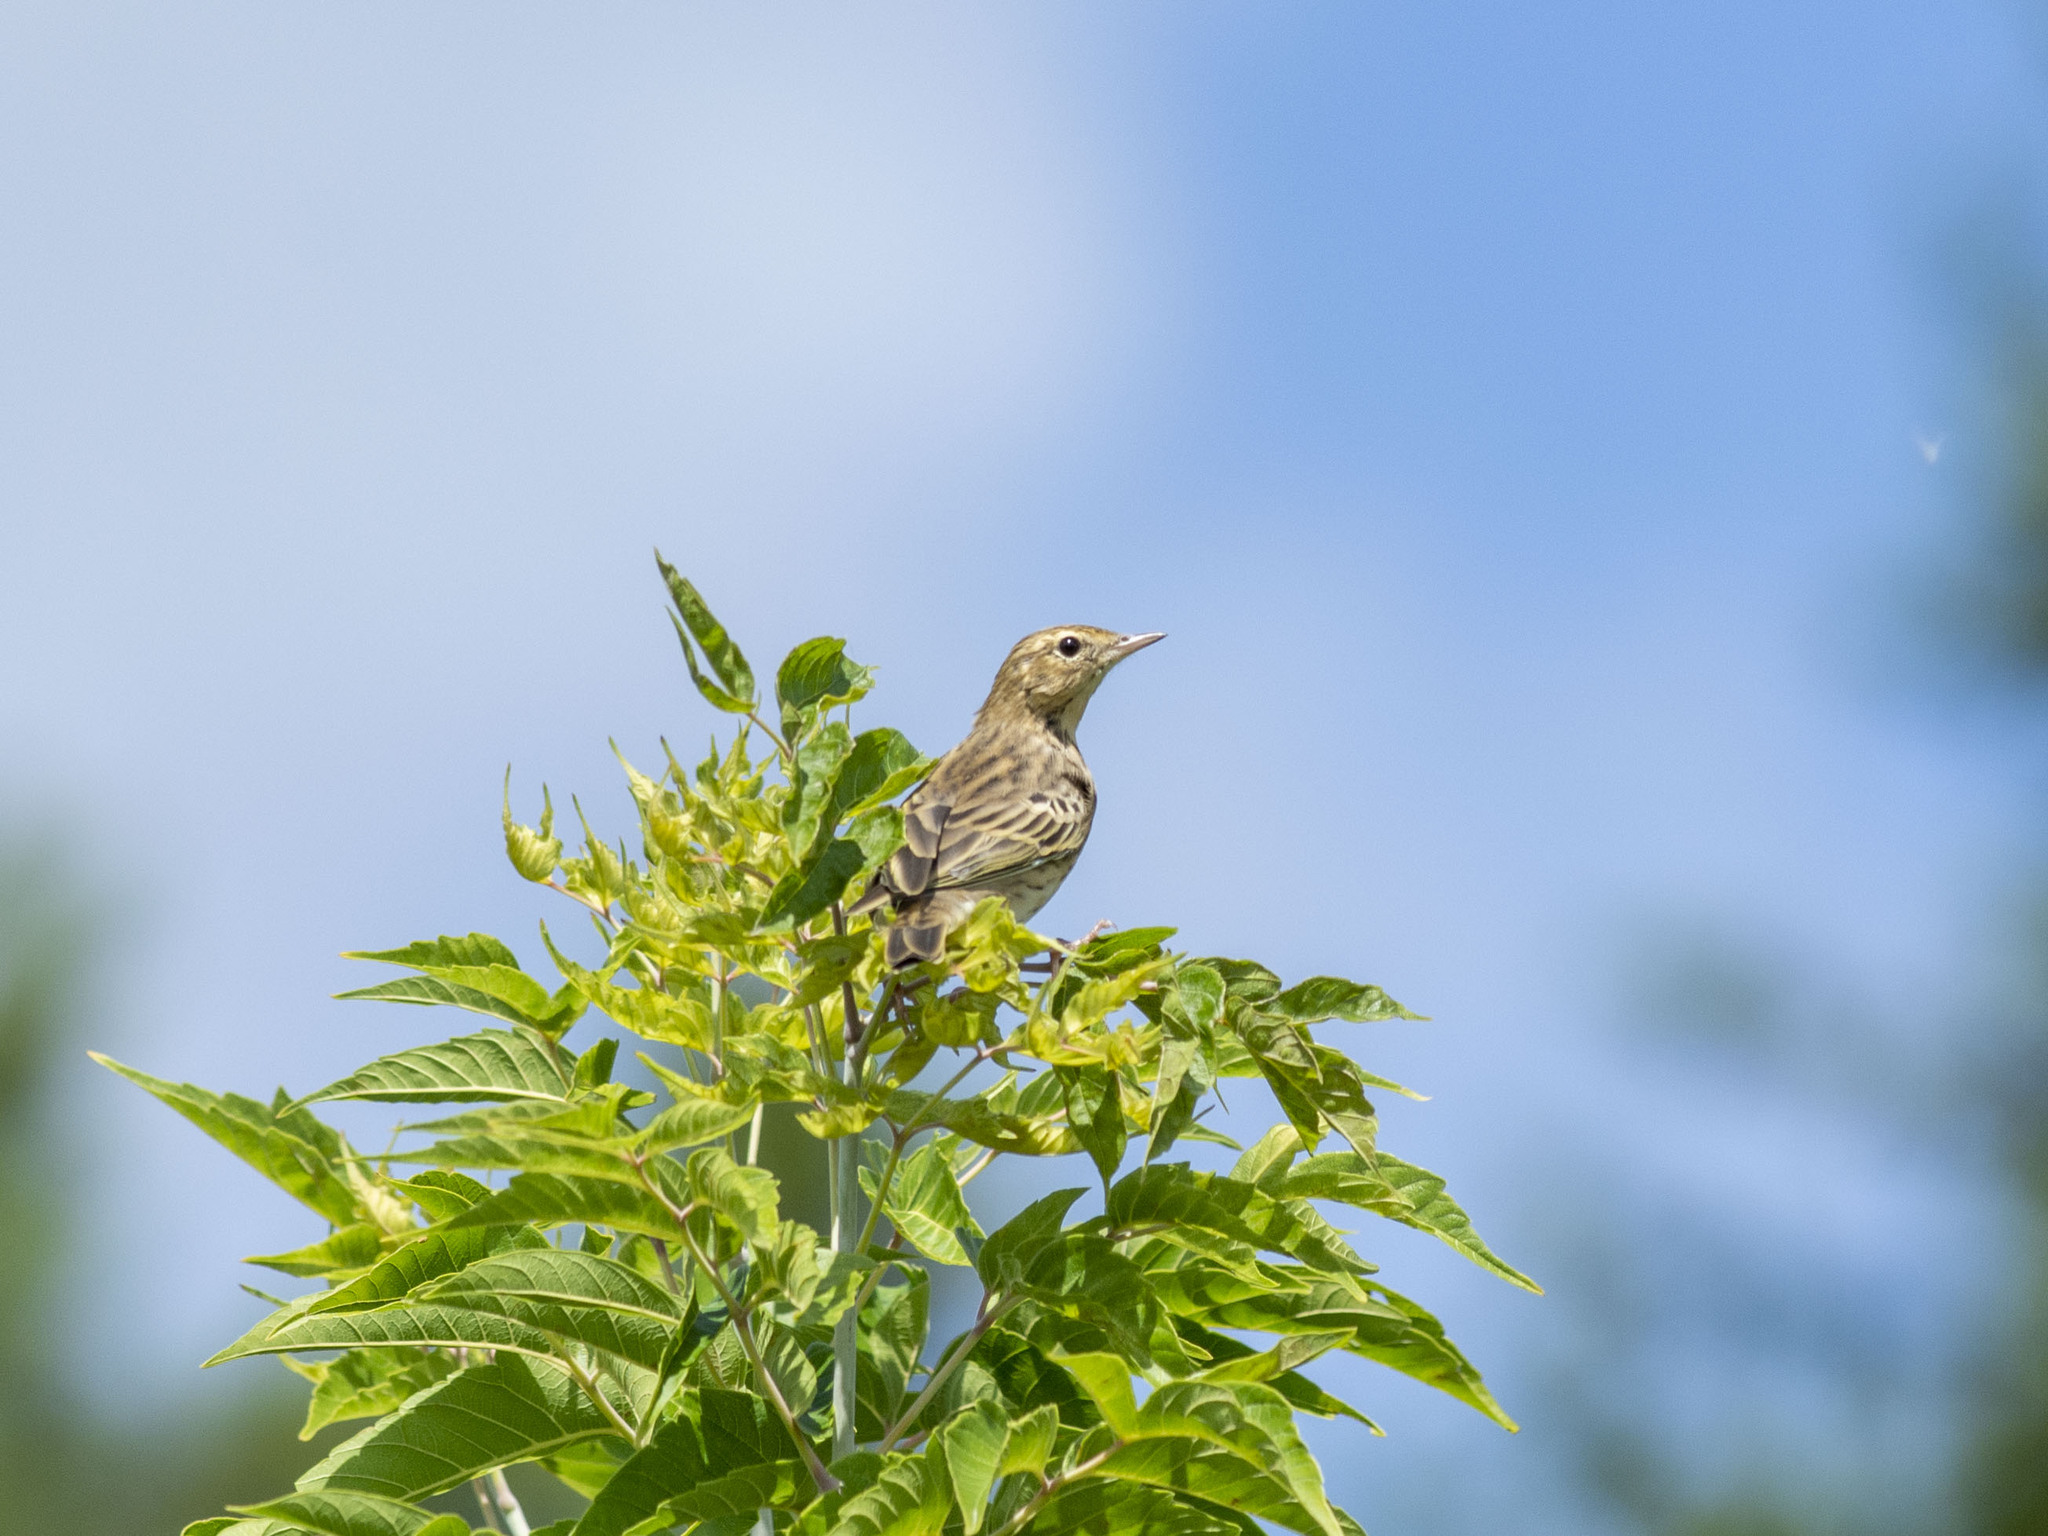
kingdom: Animalia
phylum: Chordata
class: Aves
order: Passeriformes
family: Motacillidae
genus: Anthus
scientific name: Anthus trivialis
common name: Tree pipit
